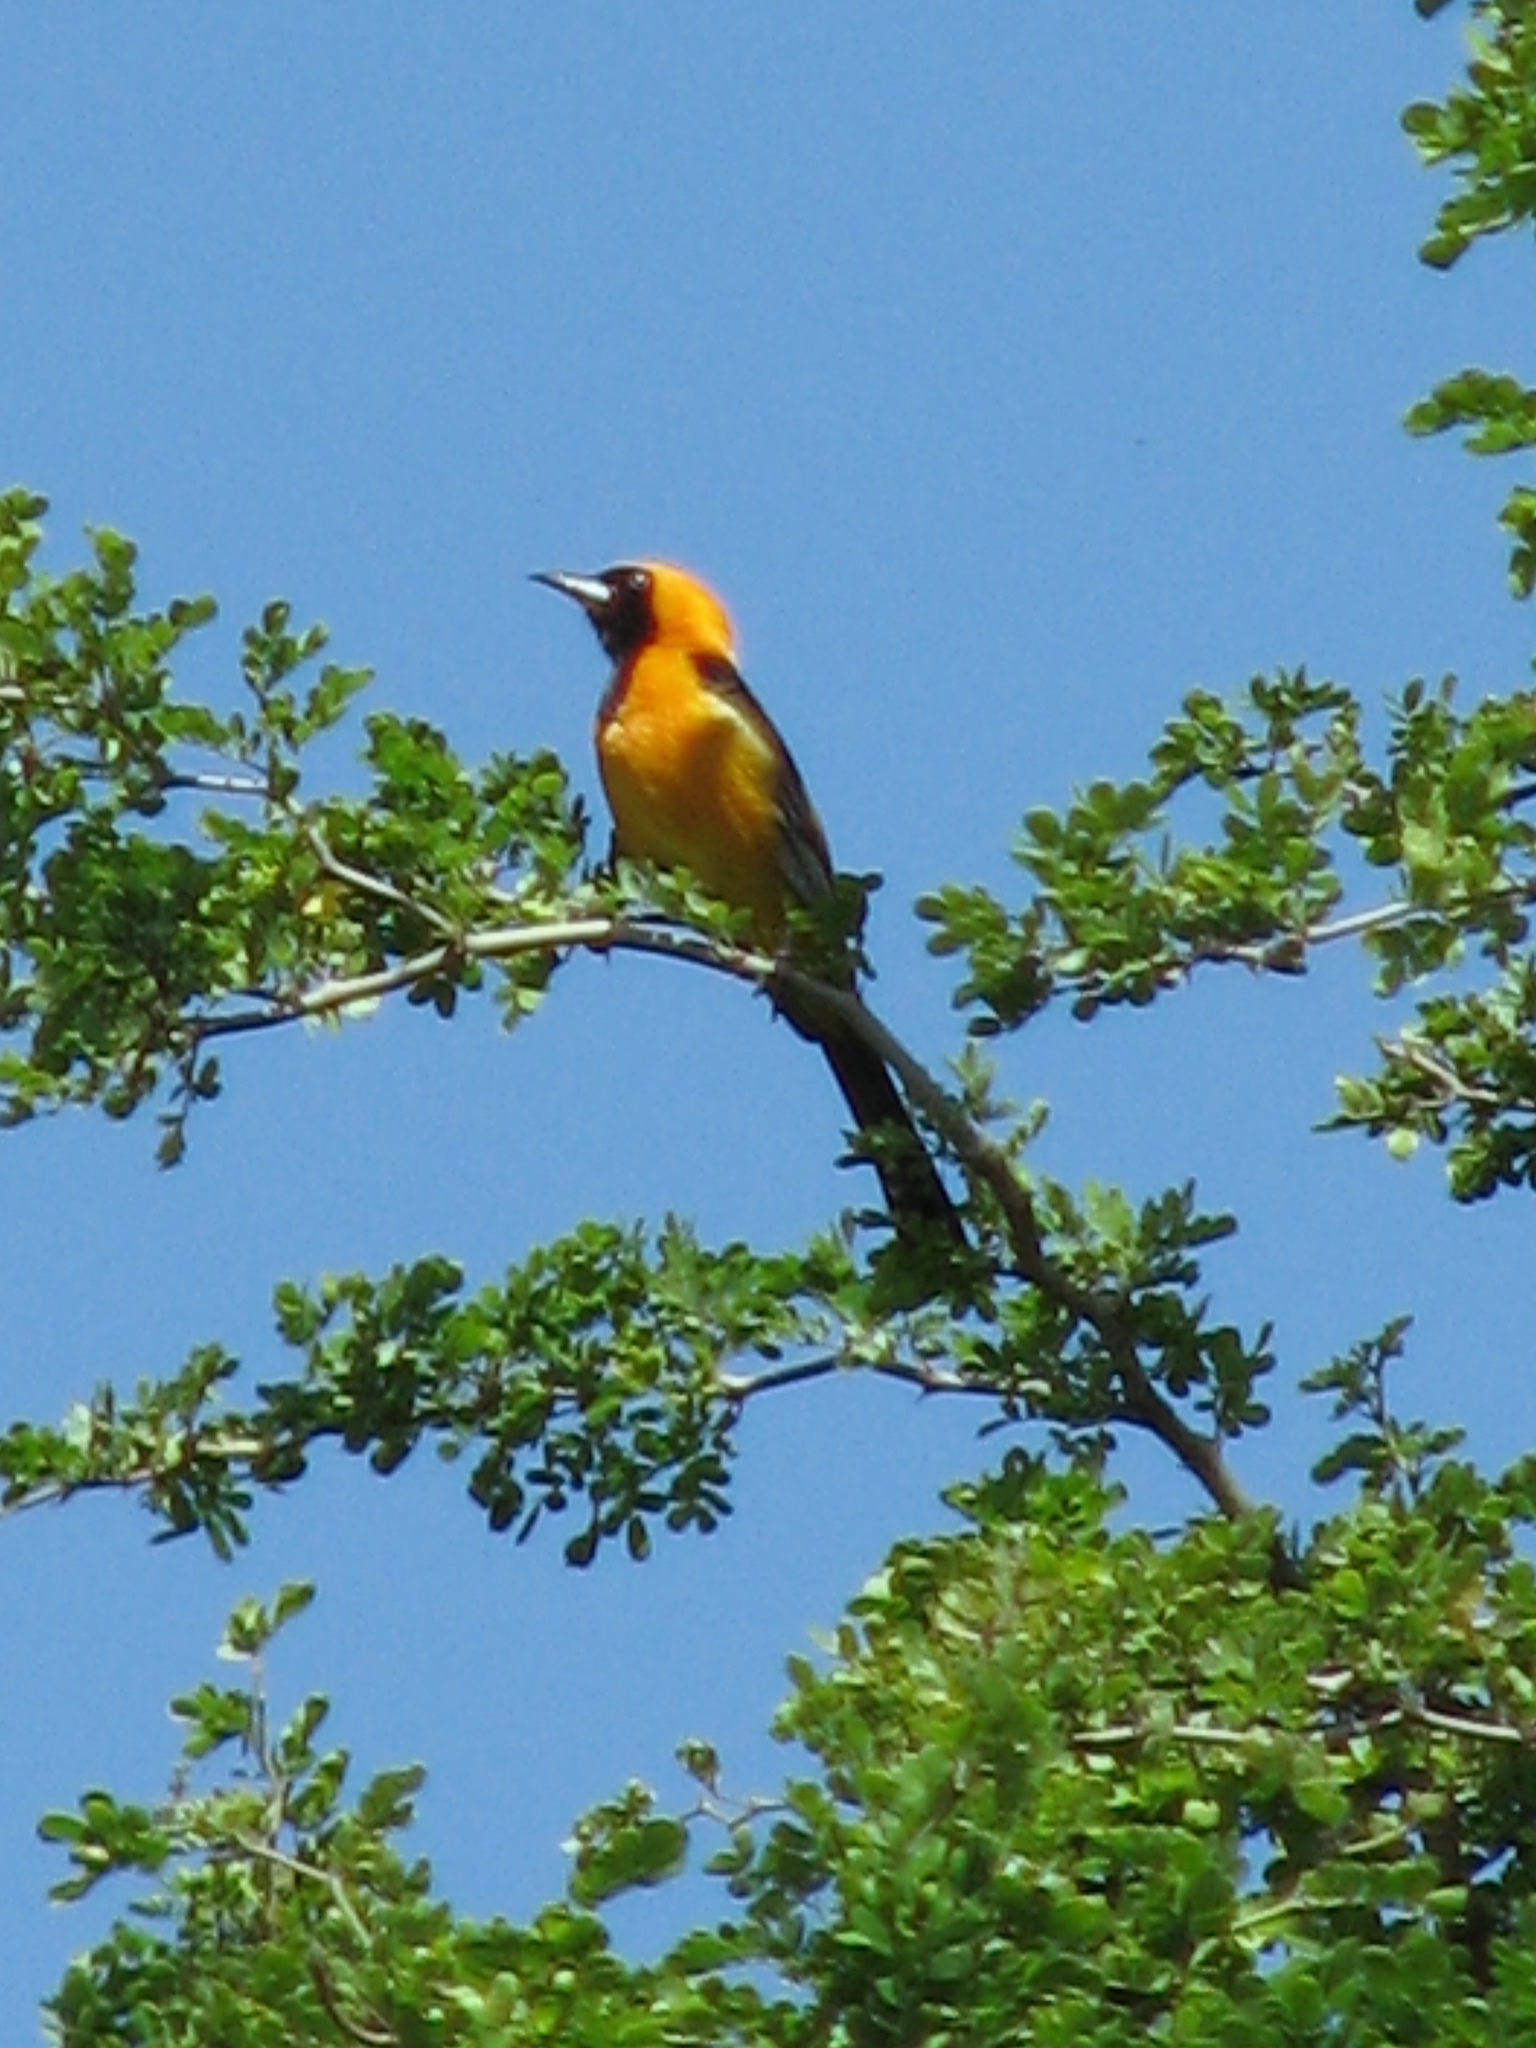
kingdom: Animalia
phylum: Chordata
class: Aves
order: Passeriformes
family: Icteridae
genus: Icterus
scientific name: Icterus cucullatus
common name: Hooded oriole
